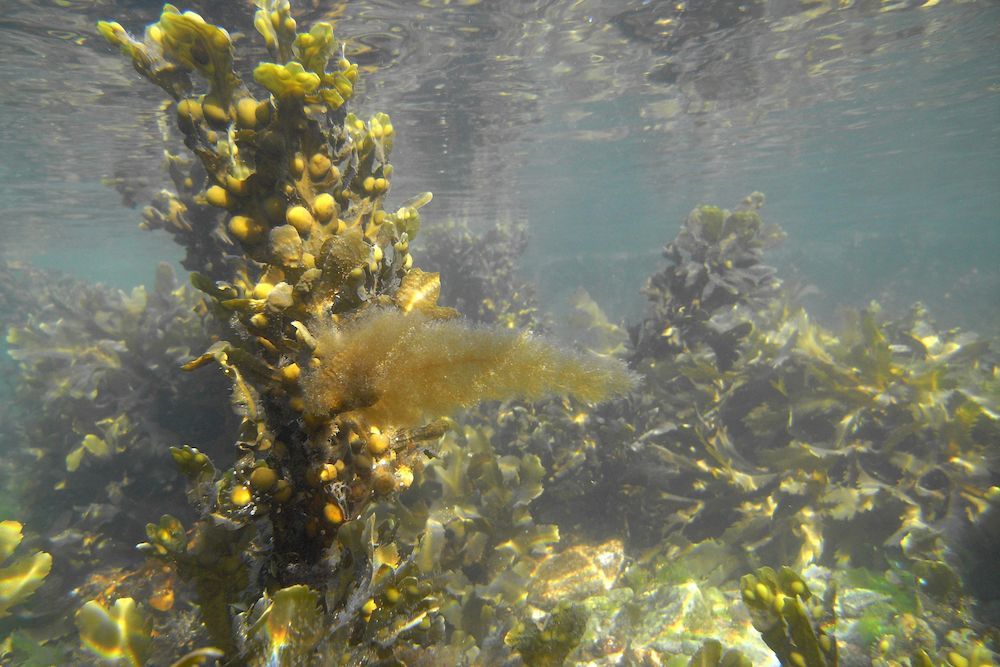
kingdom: Chromista
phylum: Ochrophyta
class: Phaeophyceae
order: Fucales
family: Fucaceae
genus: Fucus
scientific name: Fucus vesiculosus
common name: Bladder wrack
